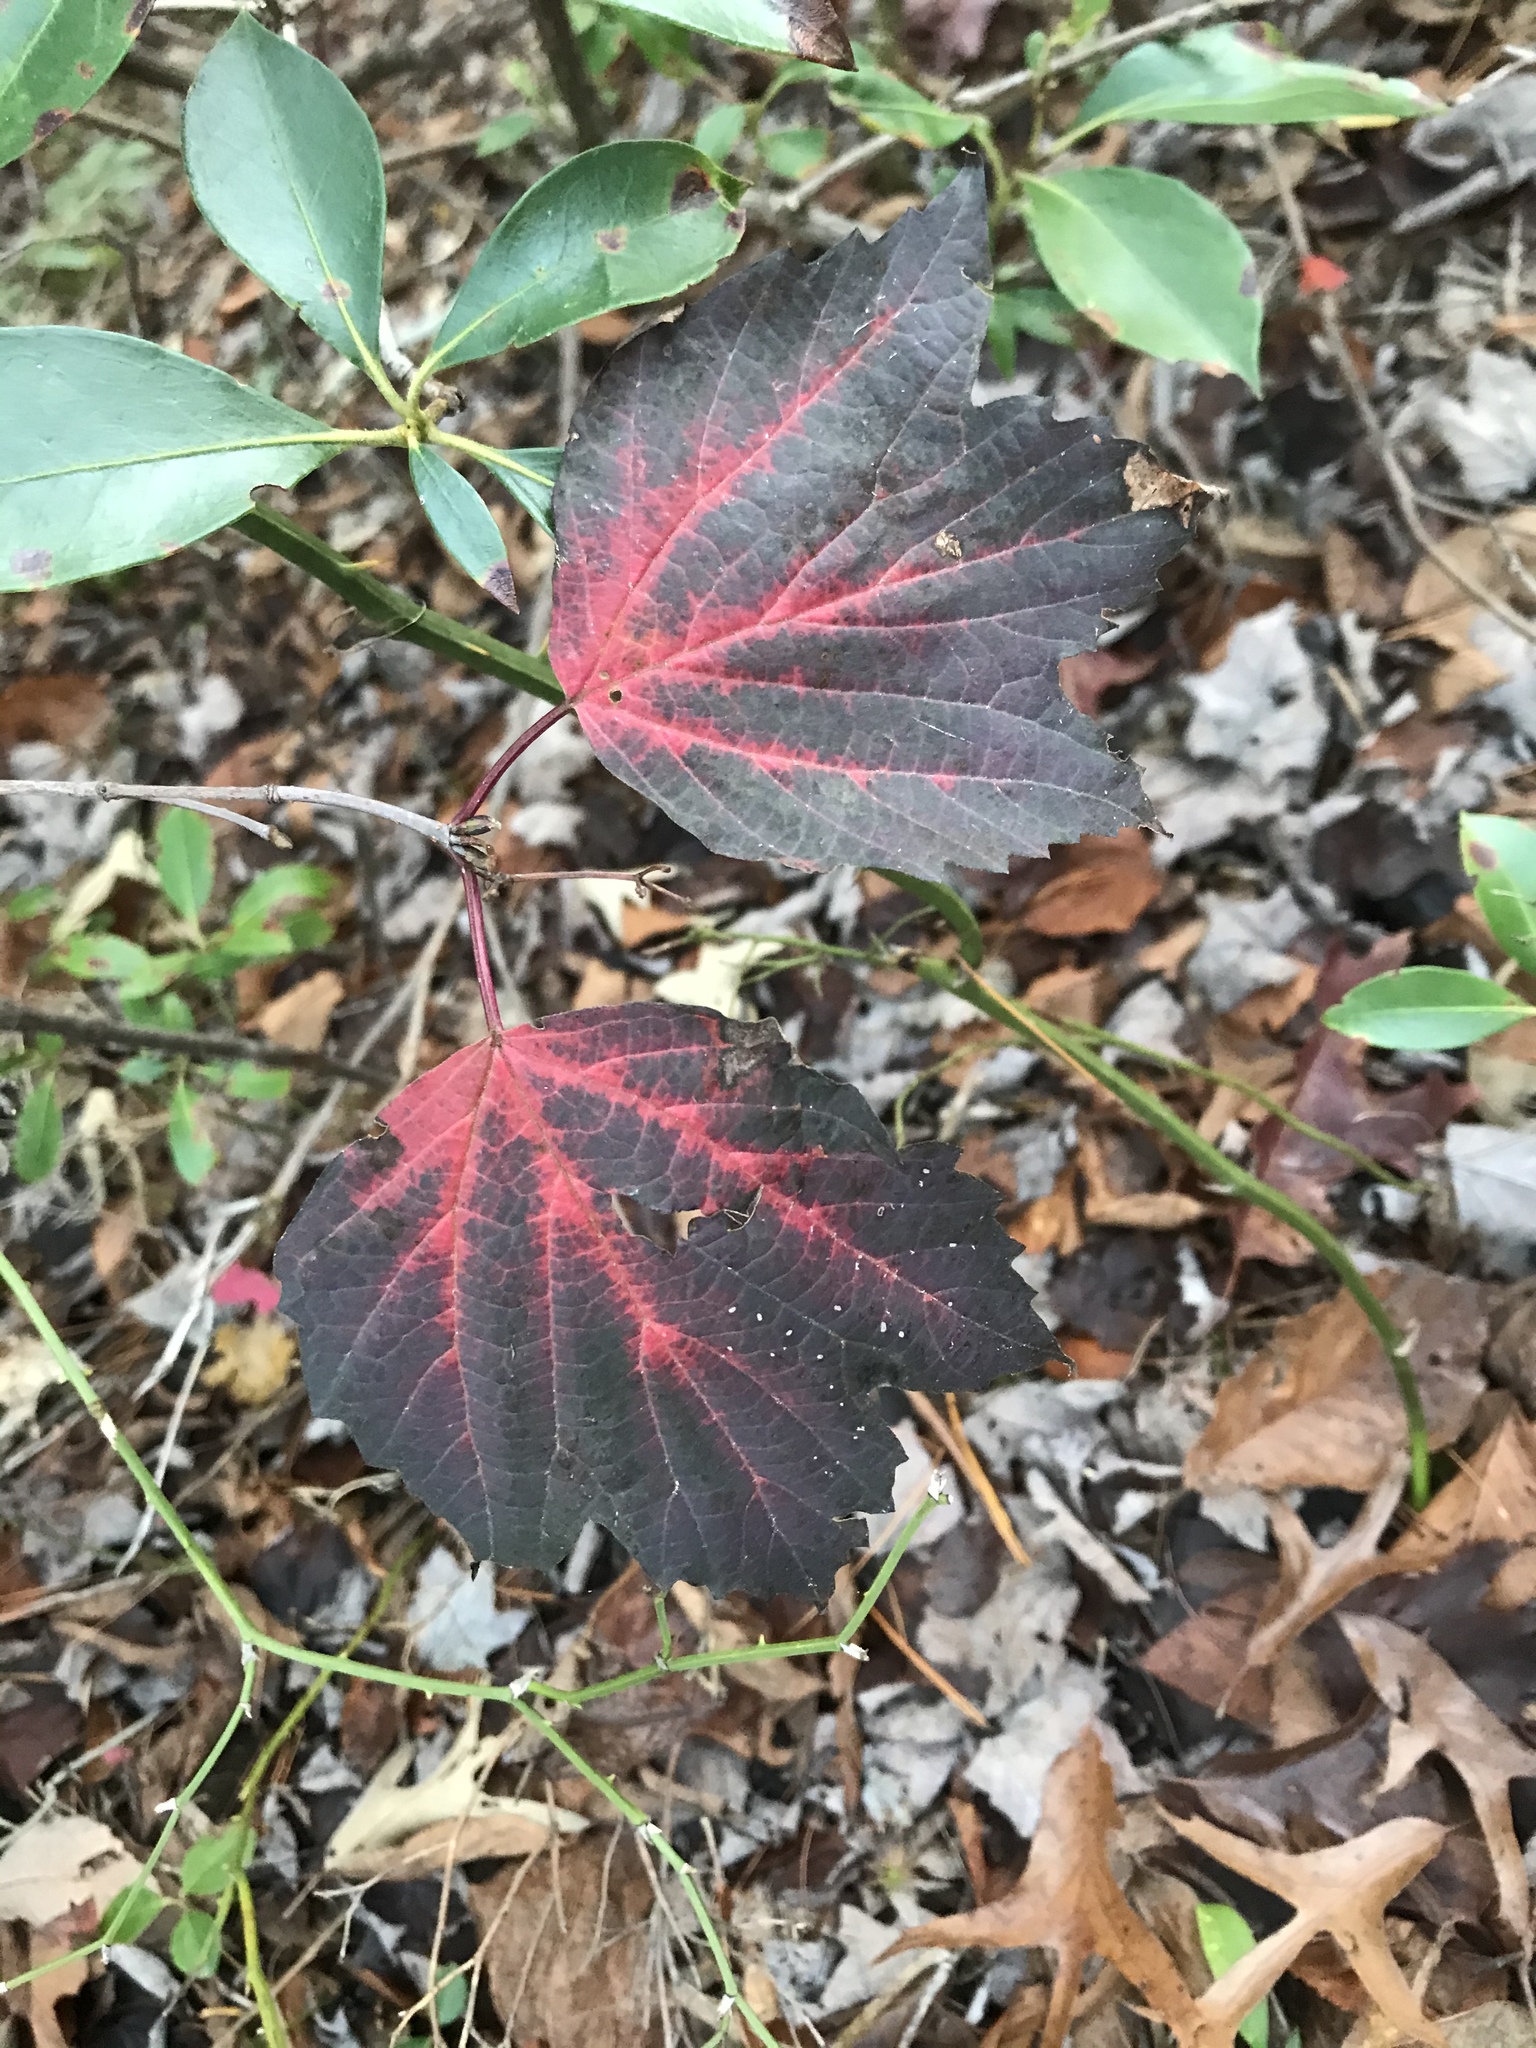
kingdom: Plantae
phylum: Tracheophyta
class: Magnoliopsida
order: Dipsacales
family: Viburnaceae
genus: Viburnum
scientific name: Viburnum acerifolium
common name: Dockmackie
